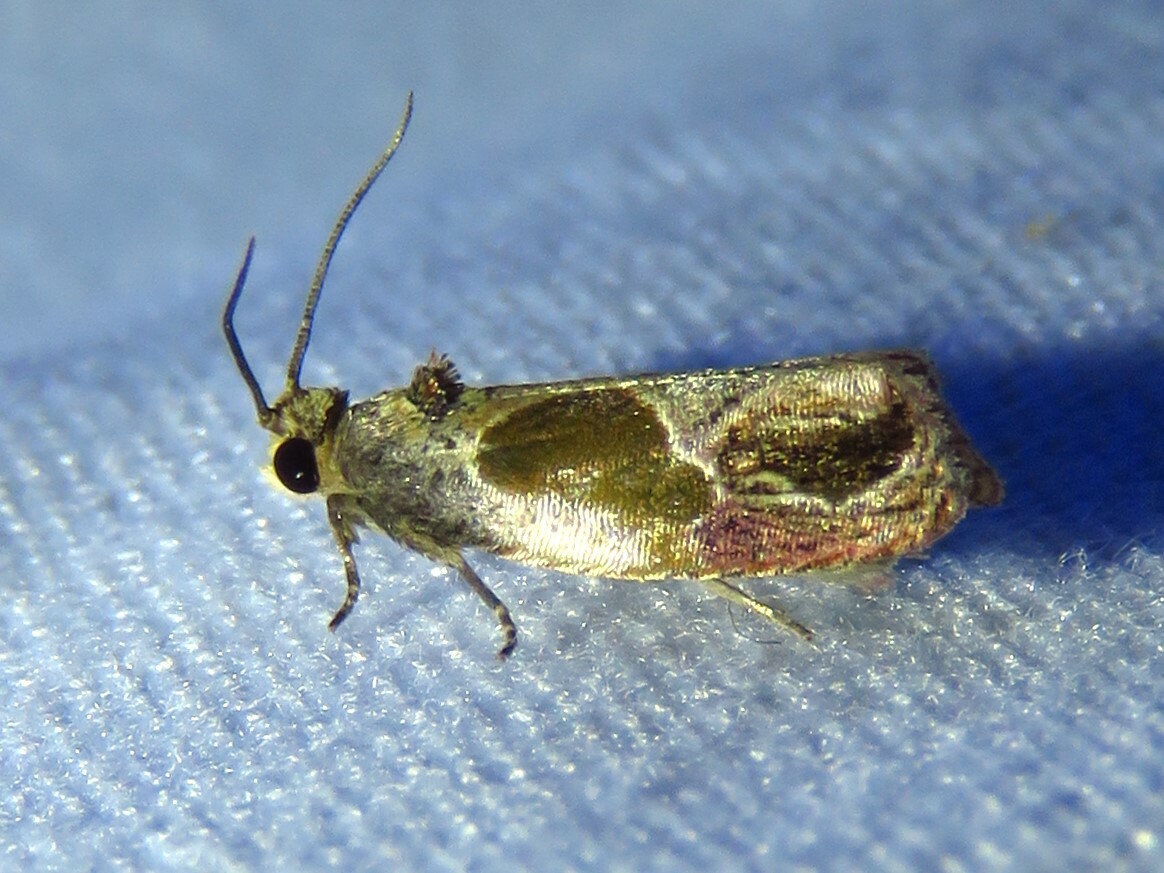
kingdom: Animalia
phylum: Arthropoda
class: Insecta
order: Lepidoptera
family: Tortricidae
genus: Eumarozia
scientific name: Eumarozia malachitana
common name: Sculptured moth
